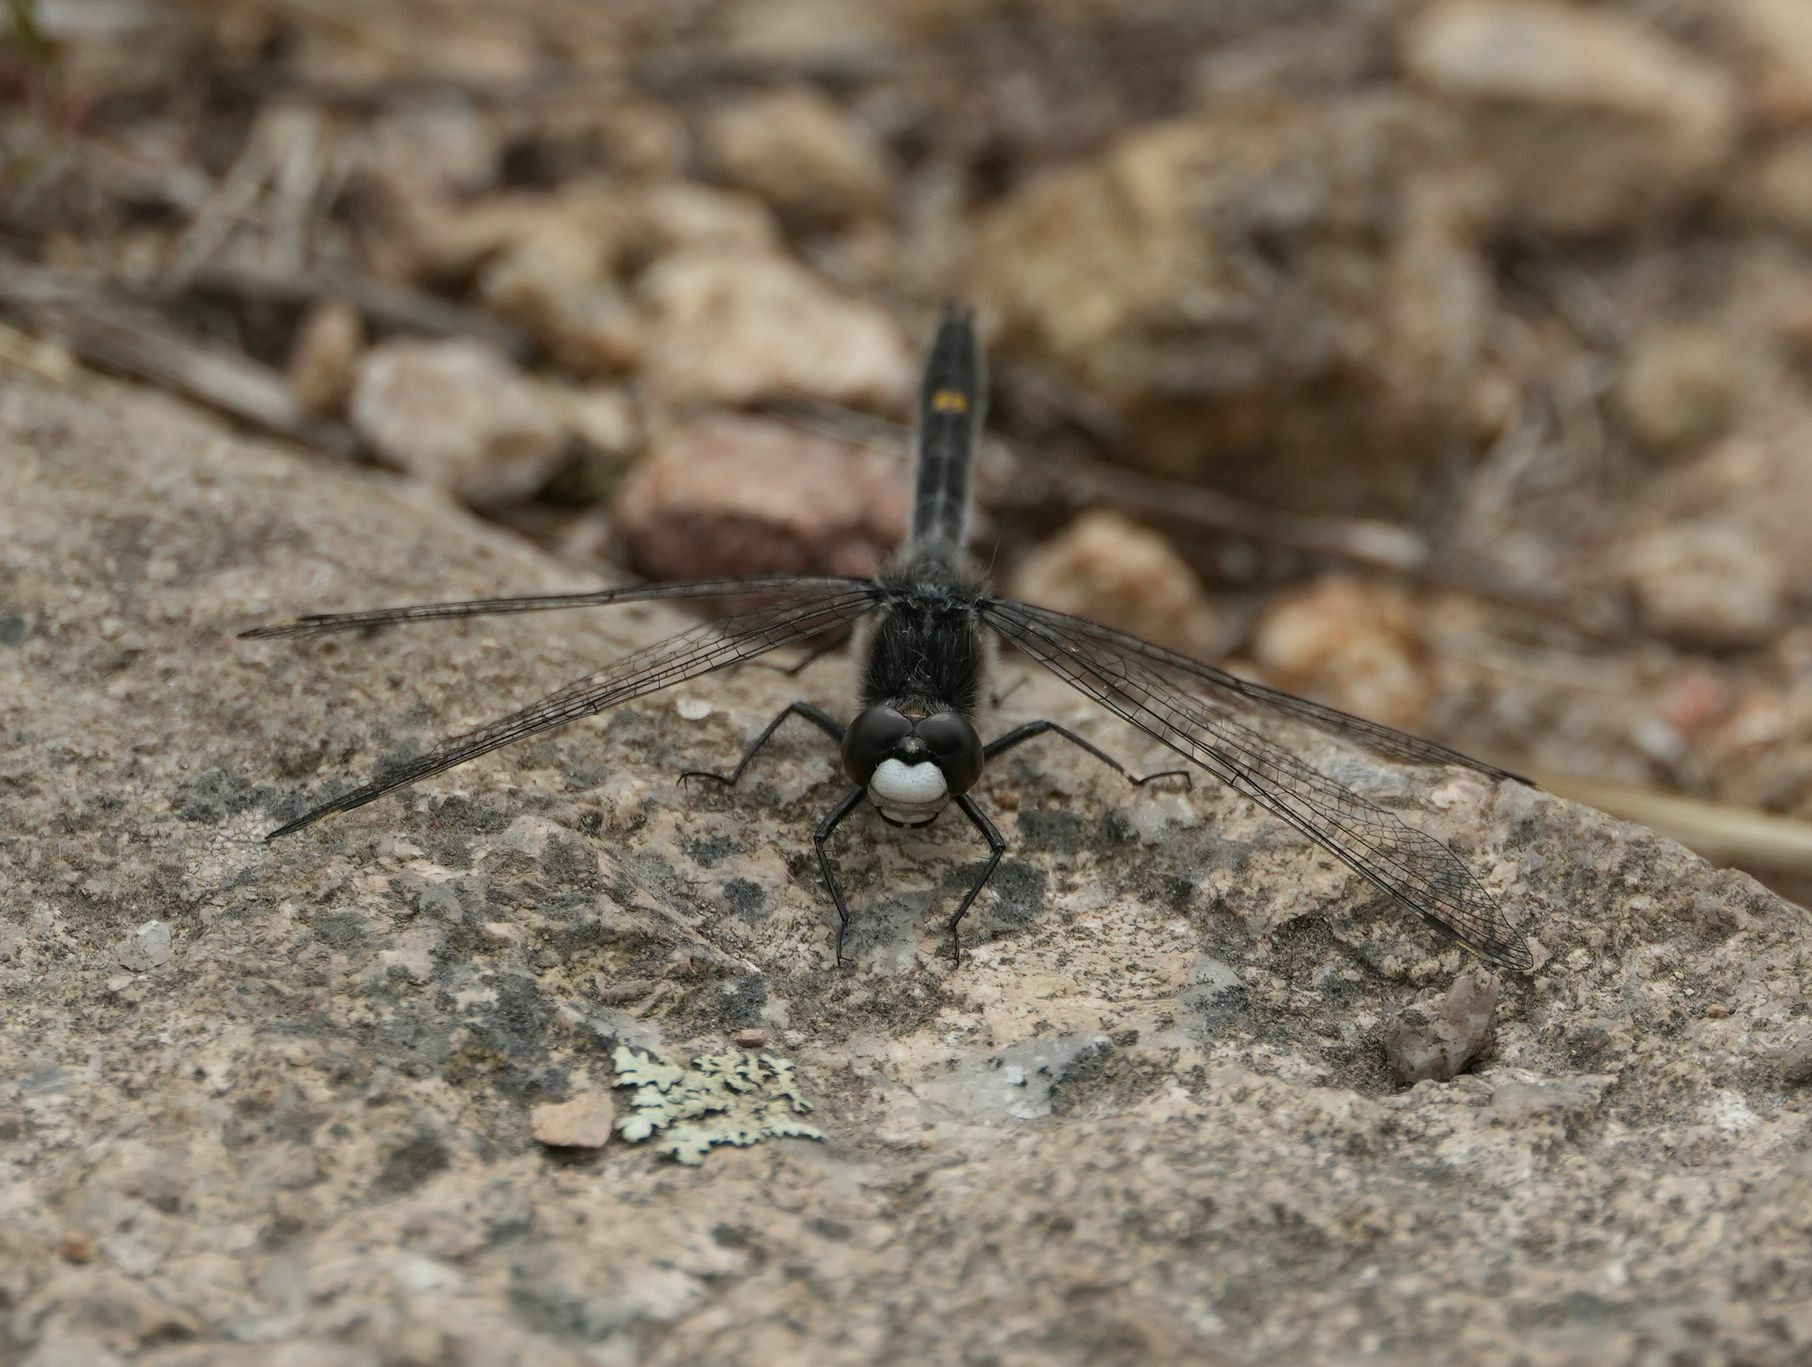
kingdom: Animalia
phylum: Arthropoda
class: Insecta
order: Odonata
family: Libellulidae
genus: Leucorrhinia
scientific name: Leucorrhinia intacta
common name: Dot-tailed whiteface
